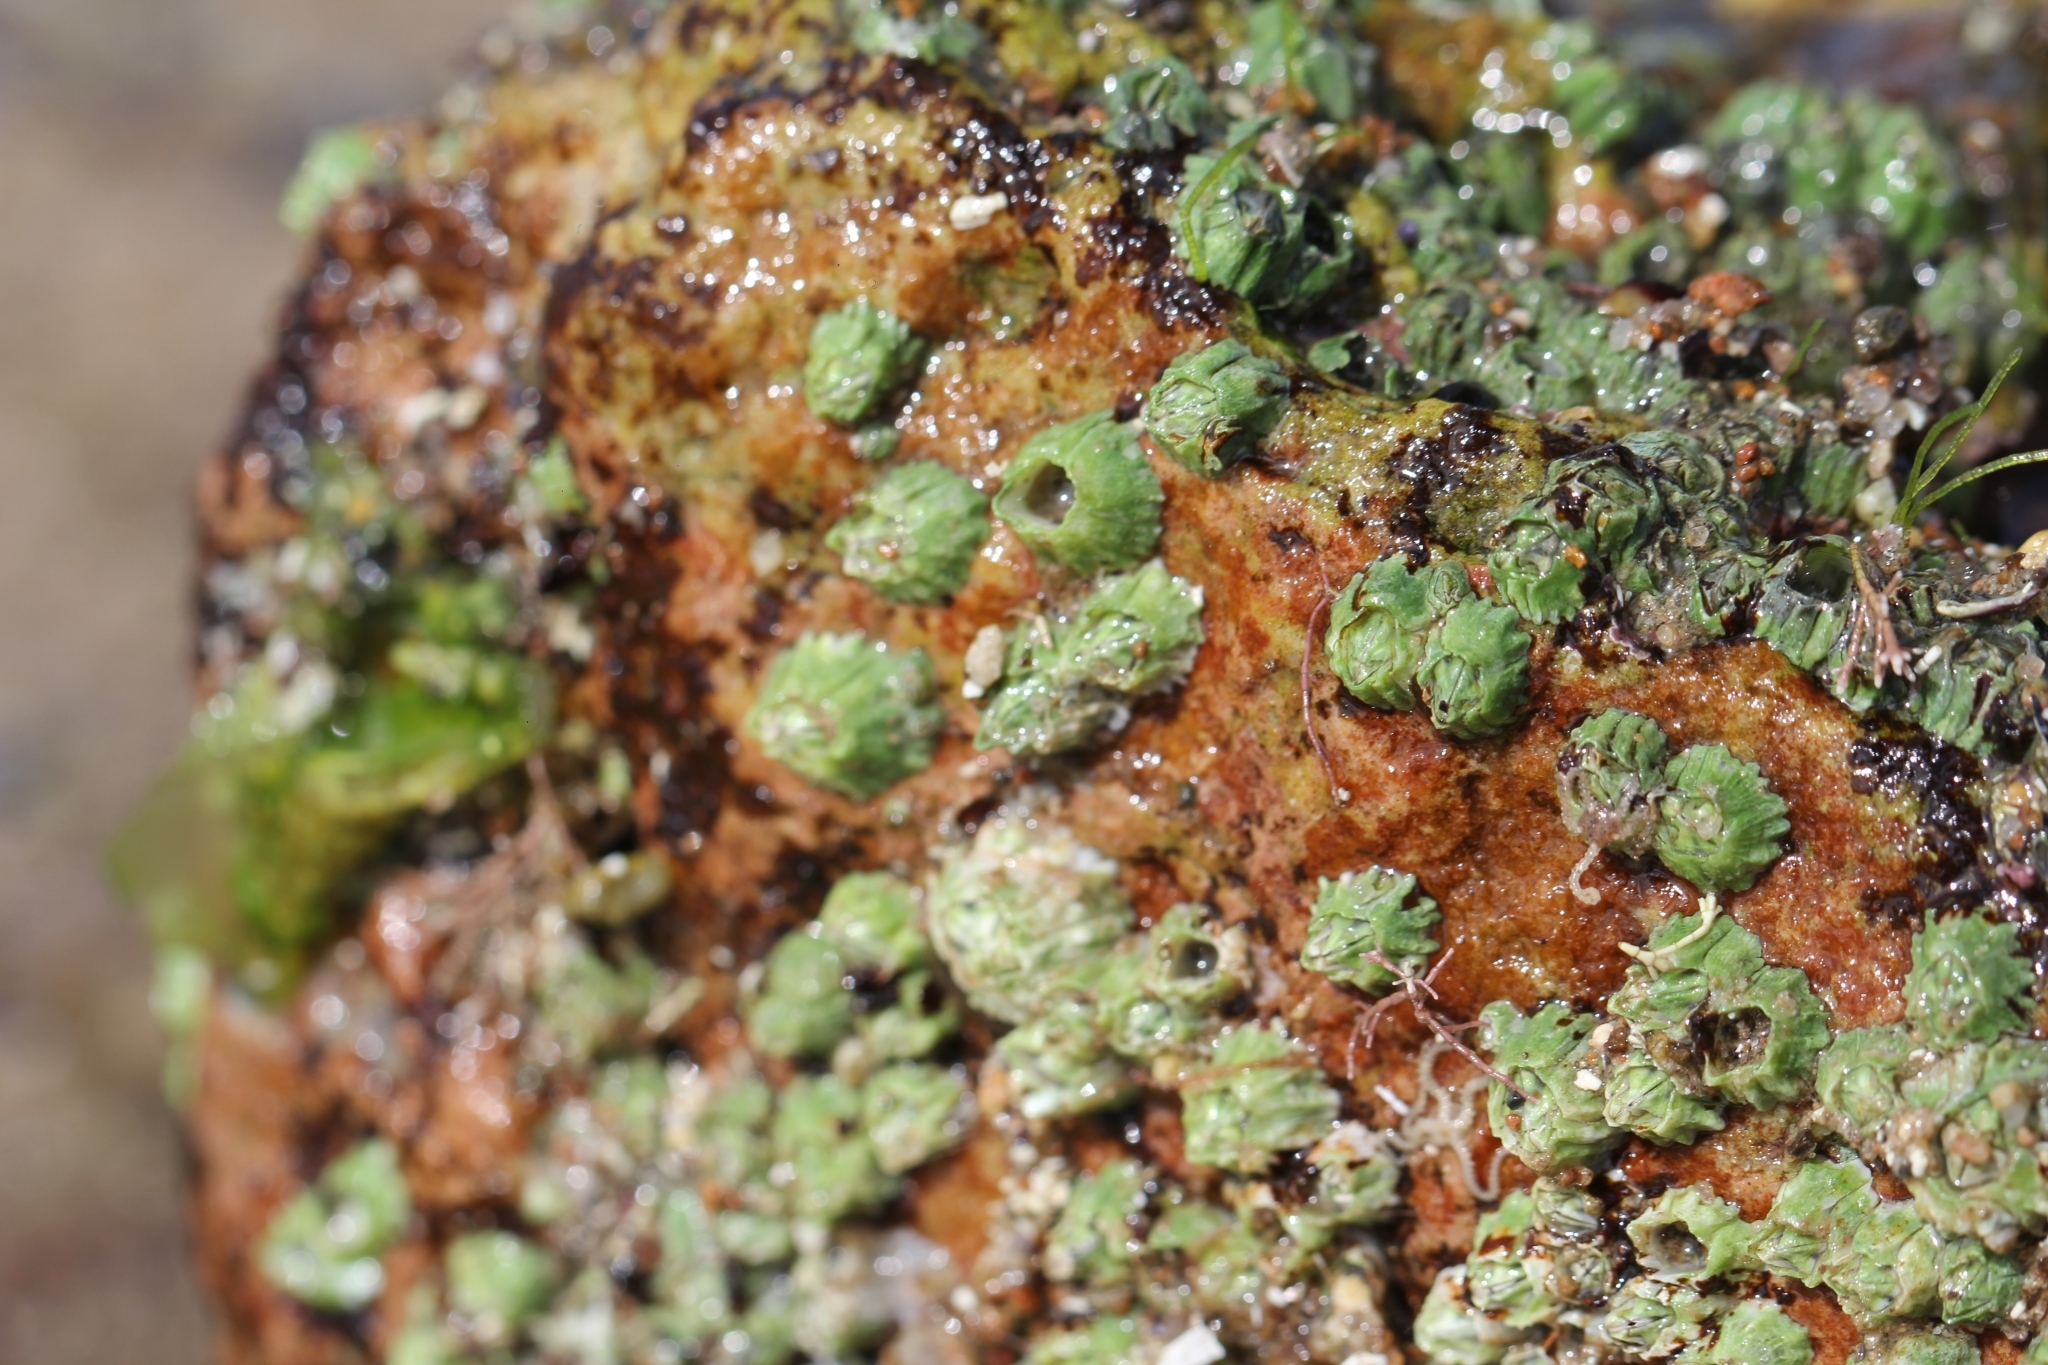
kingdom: Animalia
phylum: Arthropoda
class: Maxillopoda
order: Sessilia
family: Balanidae
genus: Balanus
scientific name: Balanus glandula
